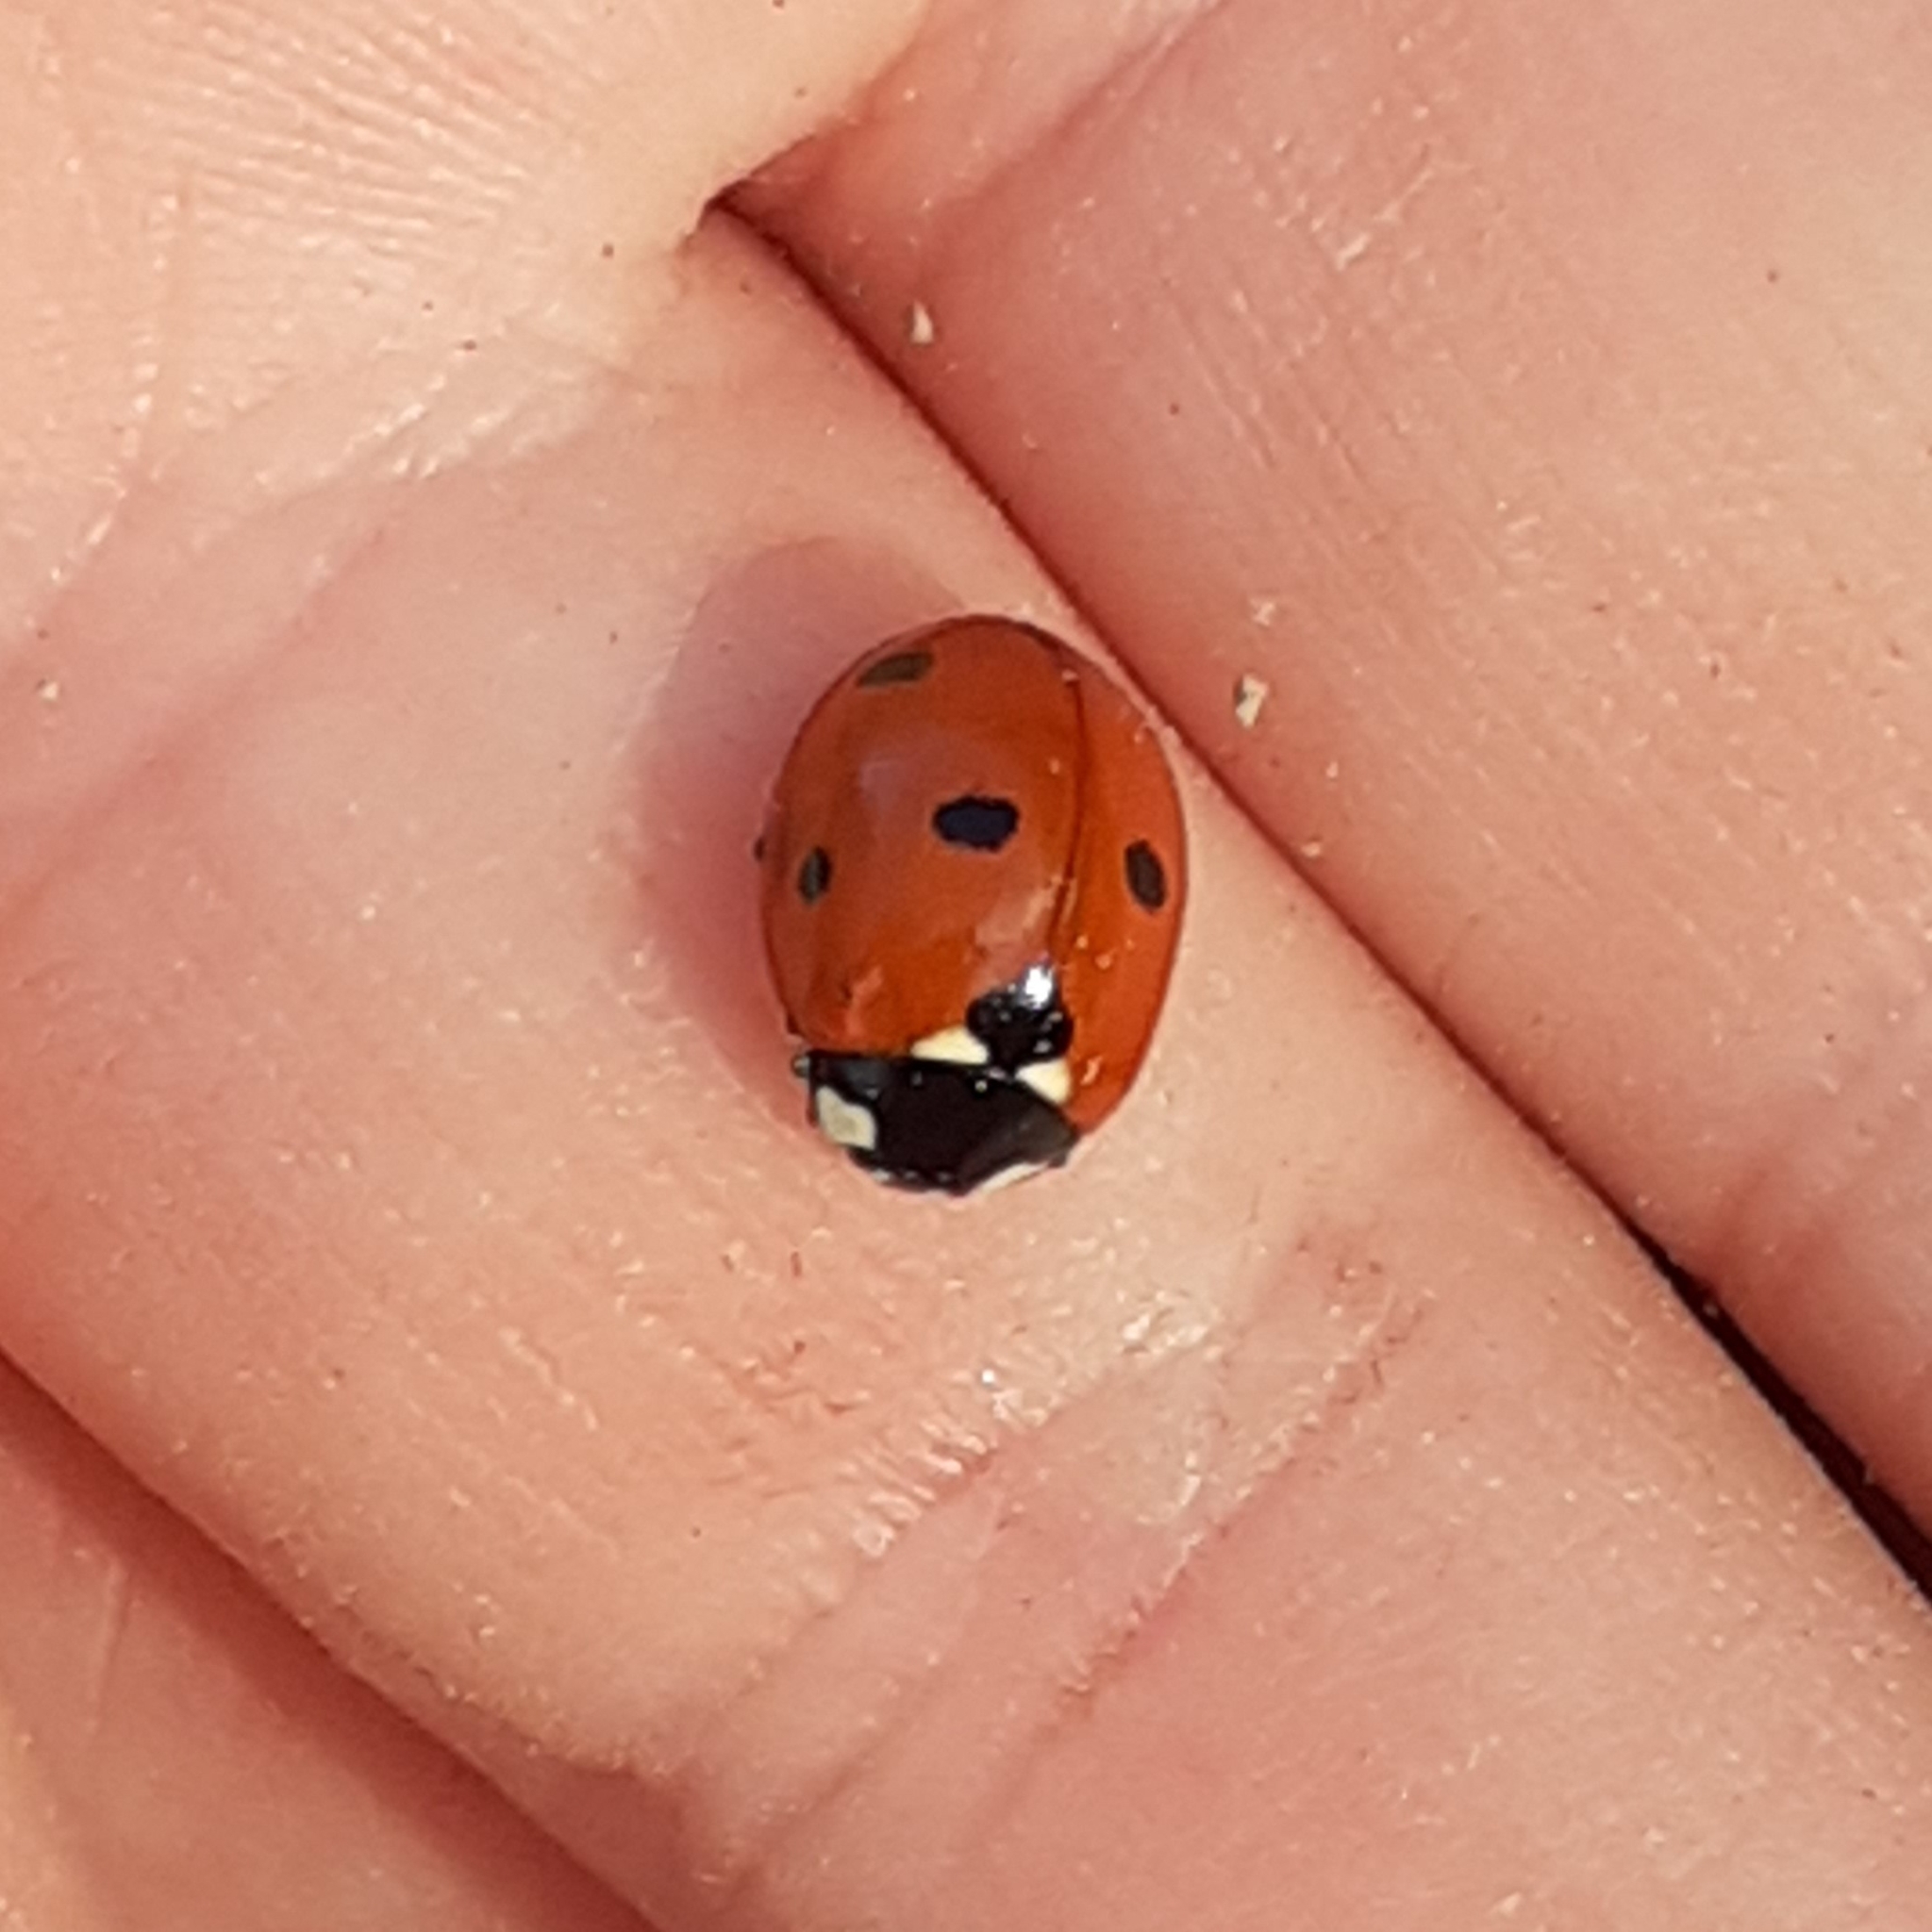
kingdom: Animalia
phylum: Arthropoda
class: Insecta
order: Coleoptera
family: Coccinellidae
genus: Coccinella
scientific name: Coccinella septempunctata
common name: Sevenspotted lady beetle
